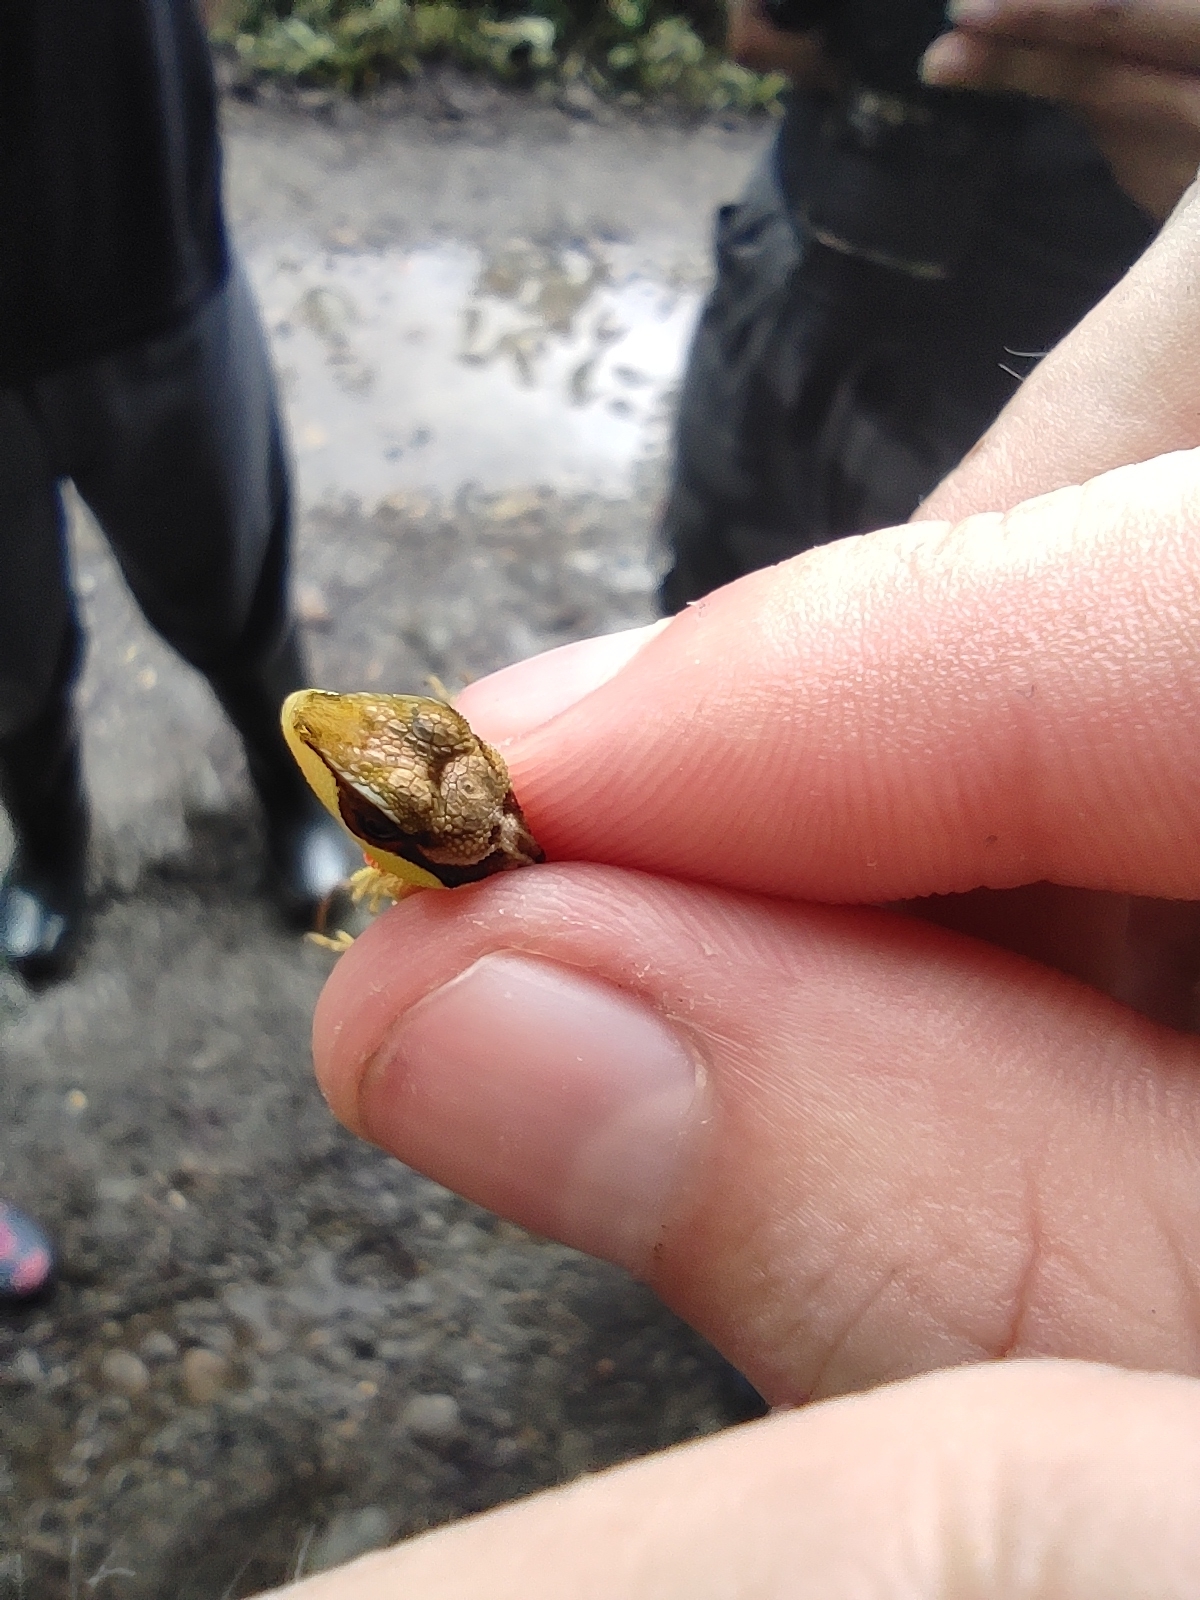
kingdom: Animalia
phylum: Chordata
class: Squamata
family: Dactyloidae
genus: Anolis
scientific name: Anolis notopholis
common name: Scalyback anole
